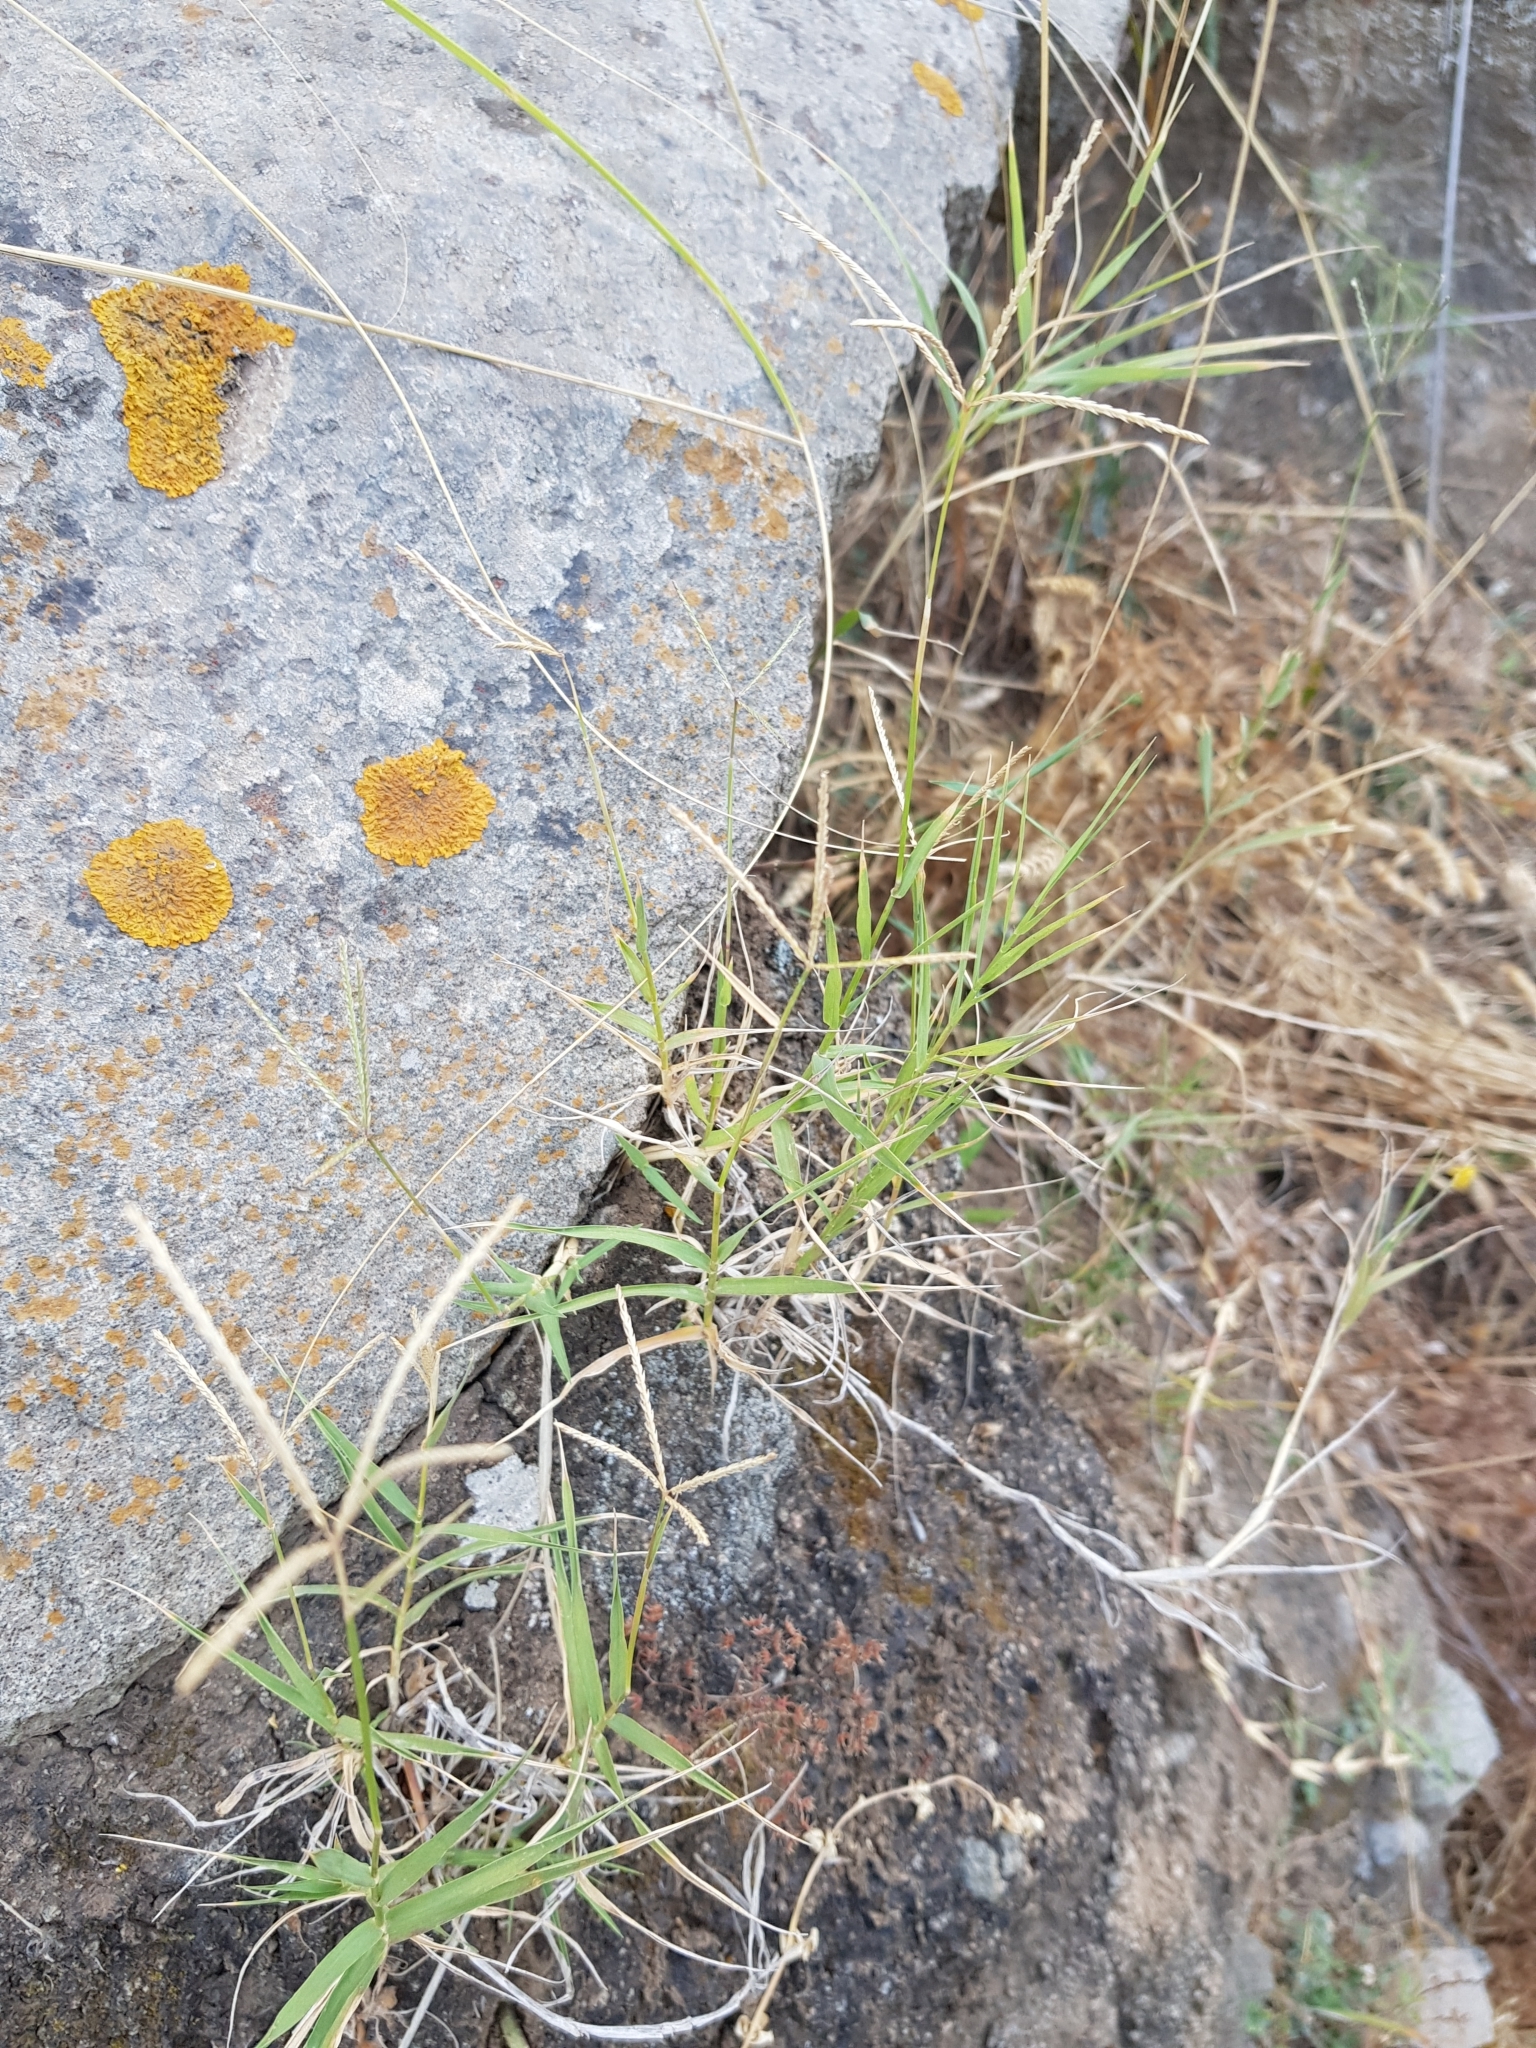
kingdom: Plantae
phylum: Tracheophyta
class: Liliopsida
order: Poales
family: Poaceae
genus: Cynodon
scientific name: Cynodon dactylon
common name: Bermuda grass
